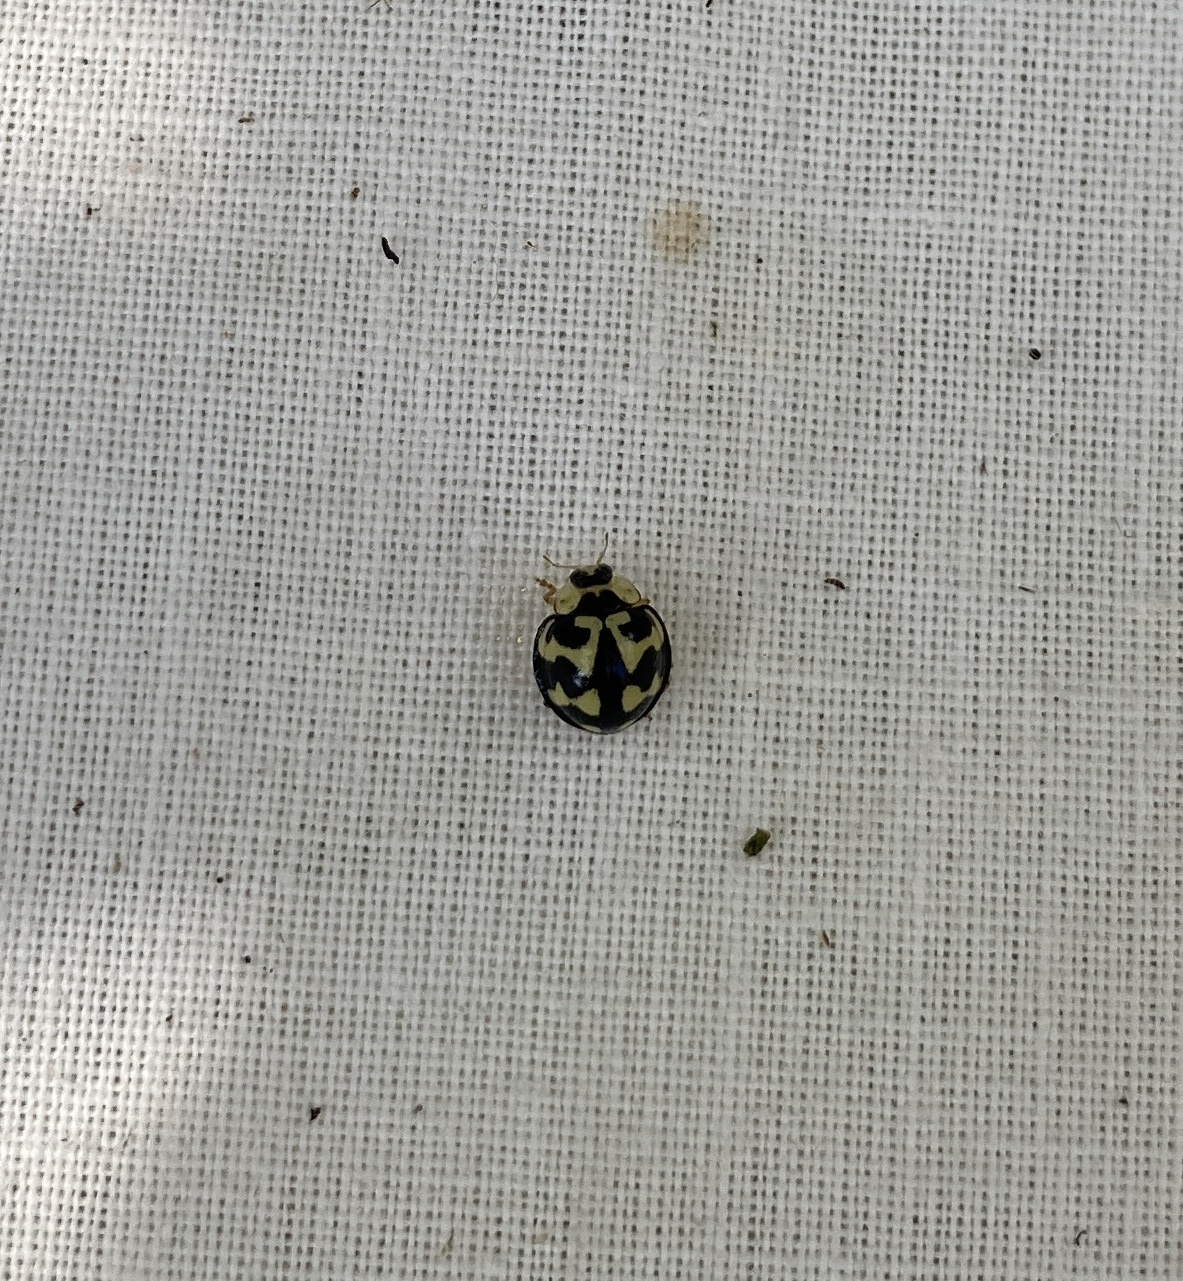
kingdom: Animalia
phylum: Arthropoda
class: Insecta
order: Coleoptera
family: Coccinellidae
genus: Heterocaria
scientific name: Heterocaria
